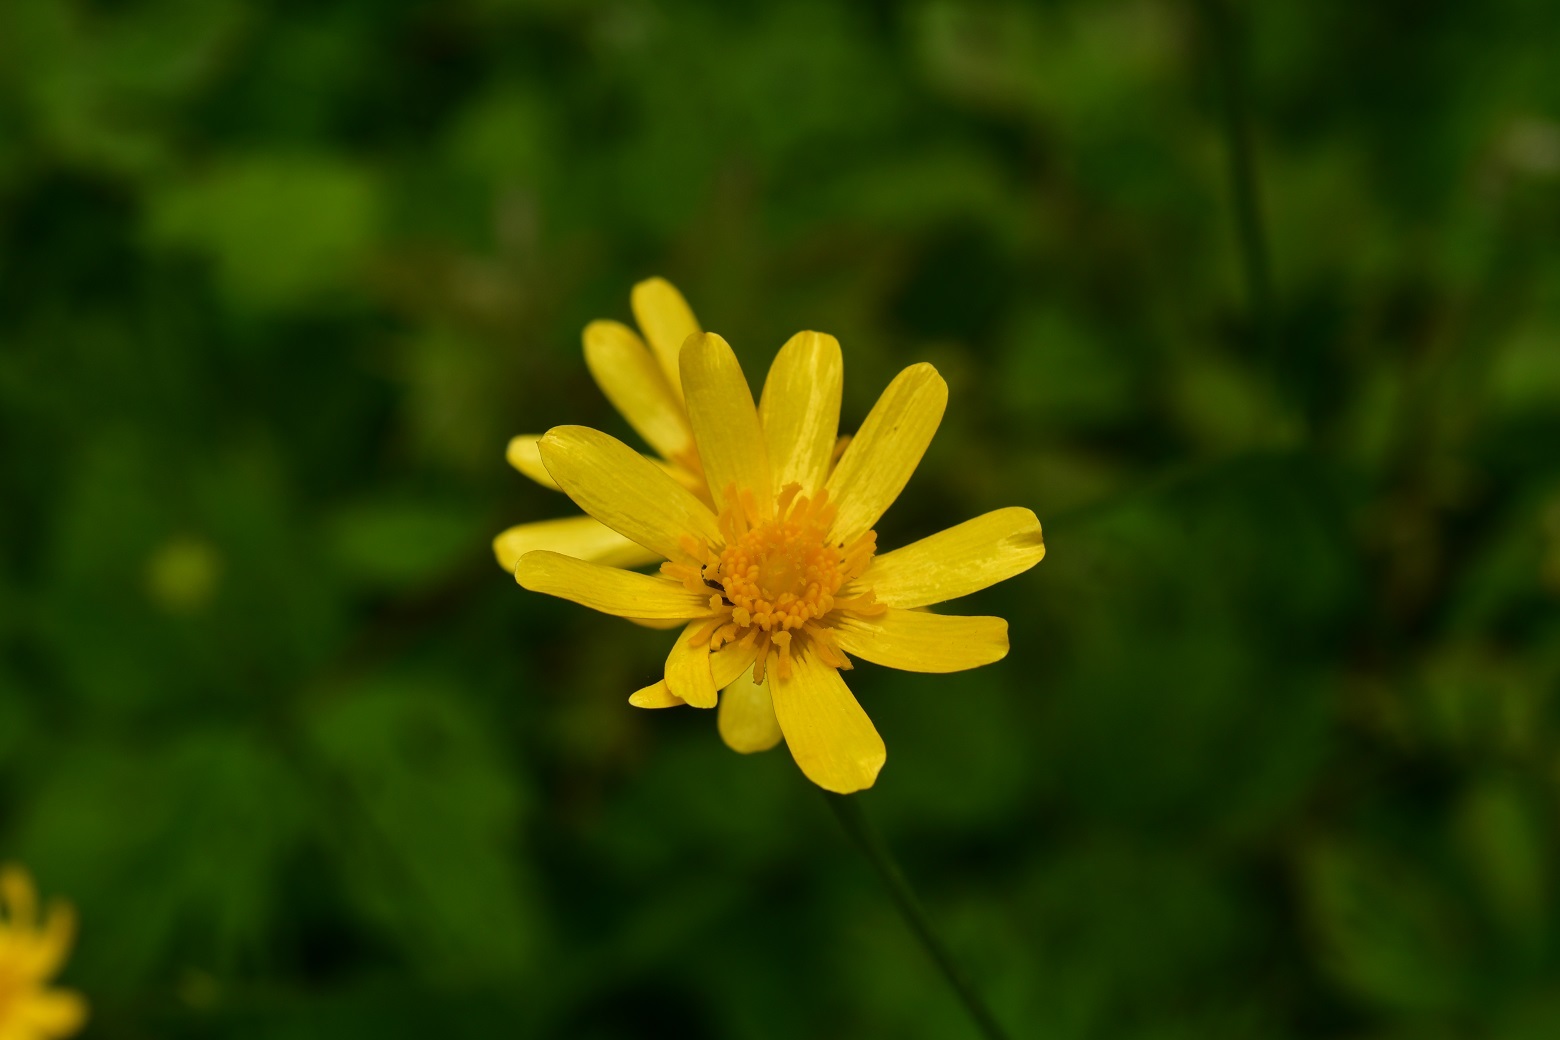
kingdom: Plantae
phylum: Tracheophyta
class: Magnoliopsida
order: Ranunculales
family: Ranunculaceae
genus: Ranunculus
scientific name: Ranunculus petiolaris
